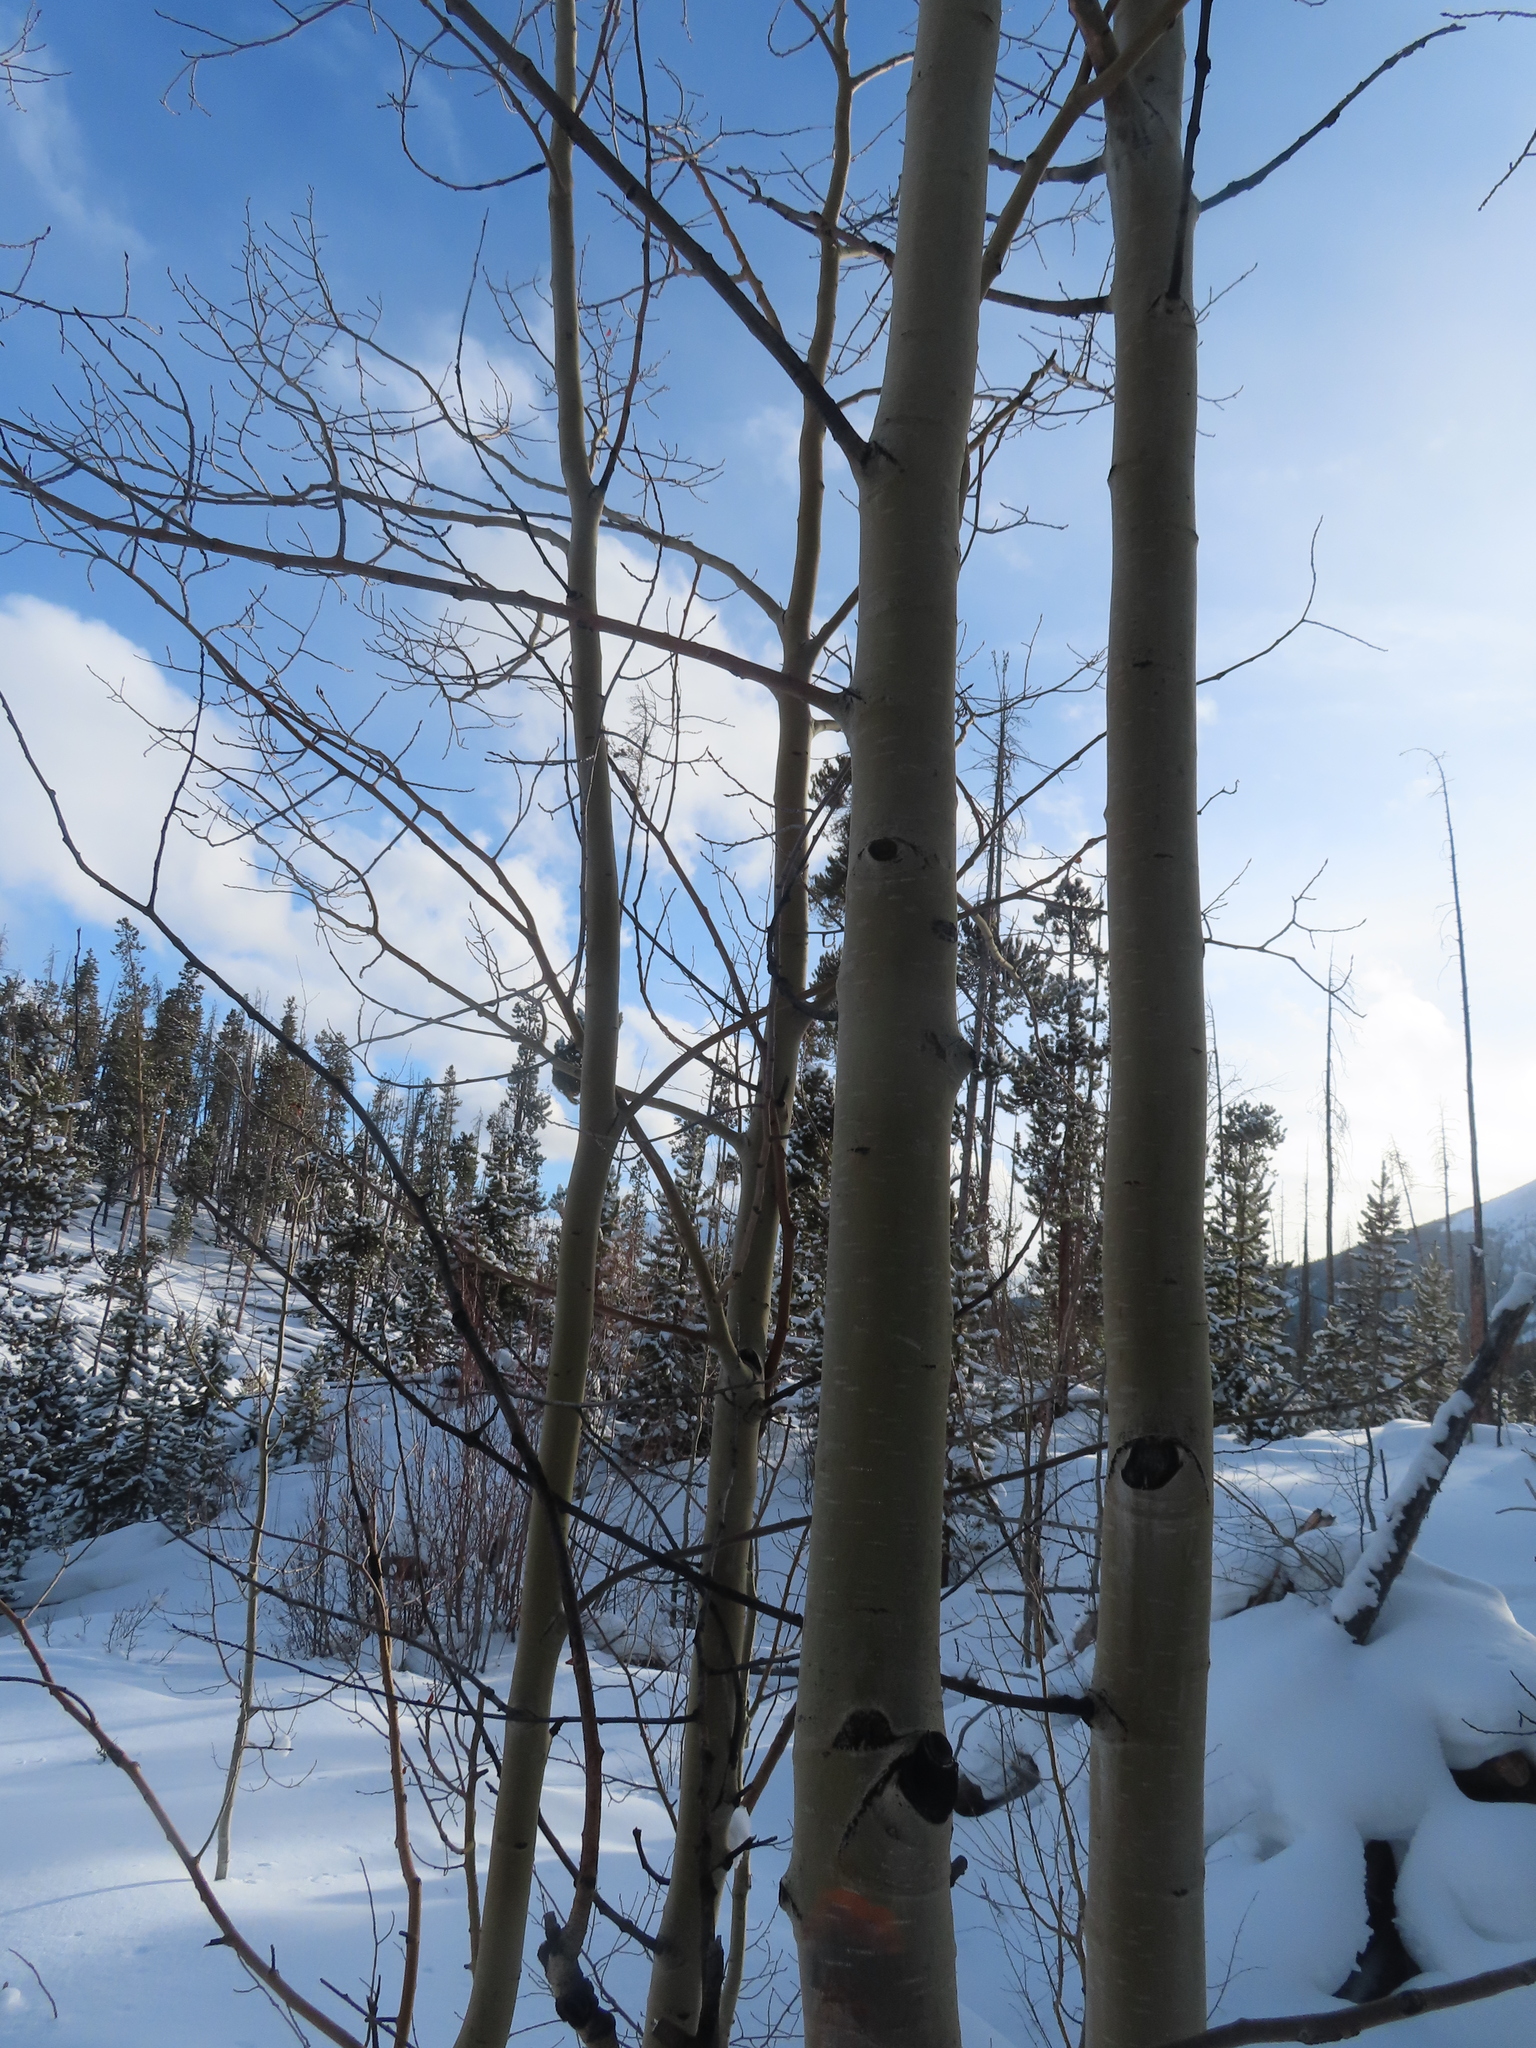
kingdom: Plantae
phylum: Tracheophyta
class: Magnoliopsida
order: Malpighiales
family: Salicaceae
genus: Populus
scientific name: Populus tremuloides
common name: Quaking aspen
